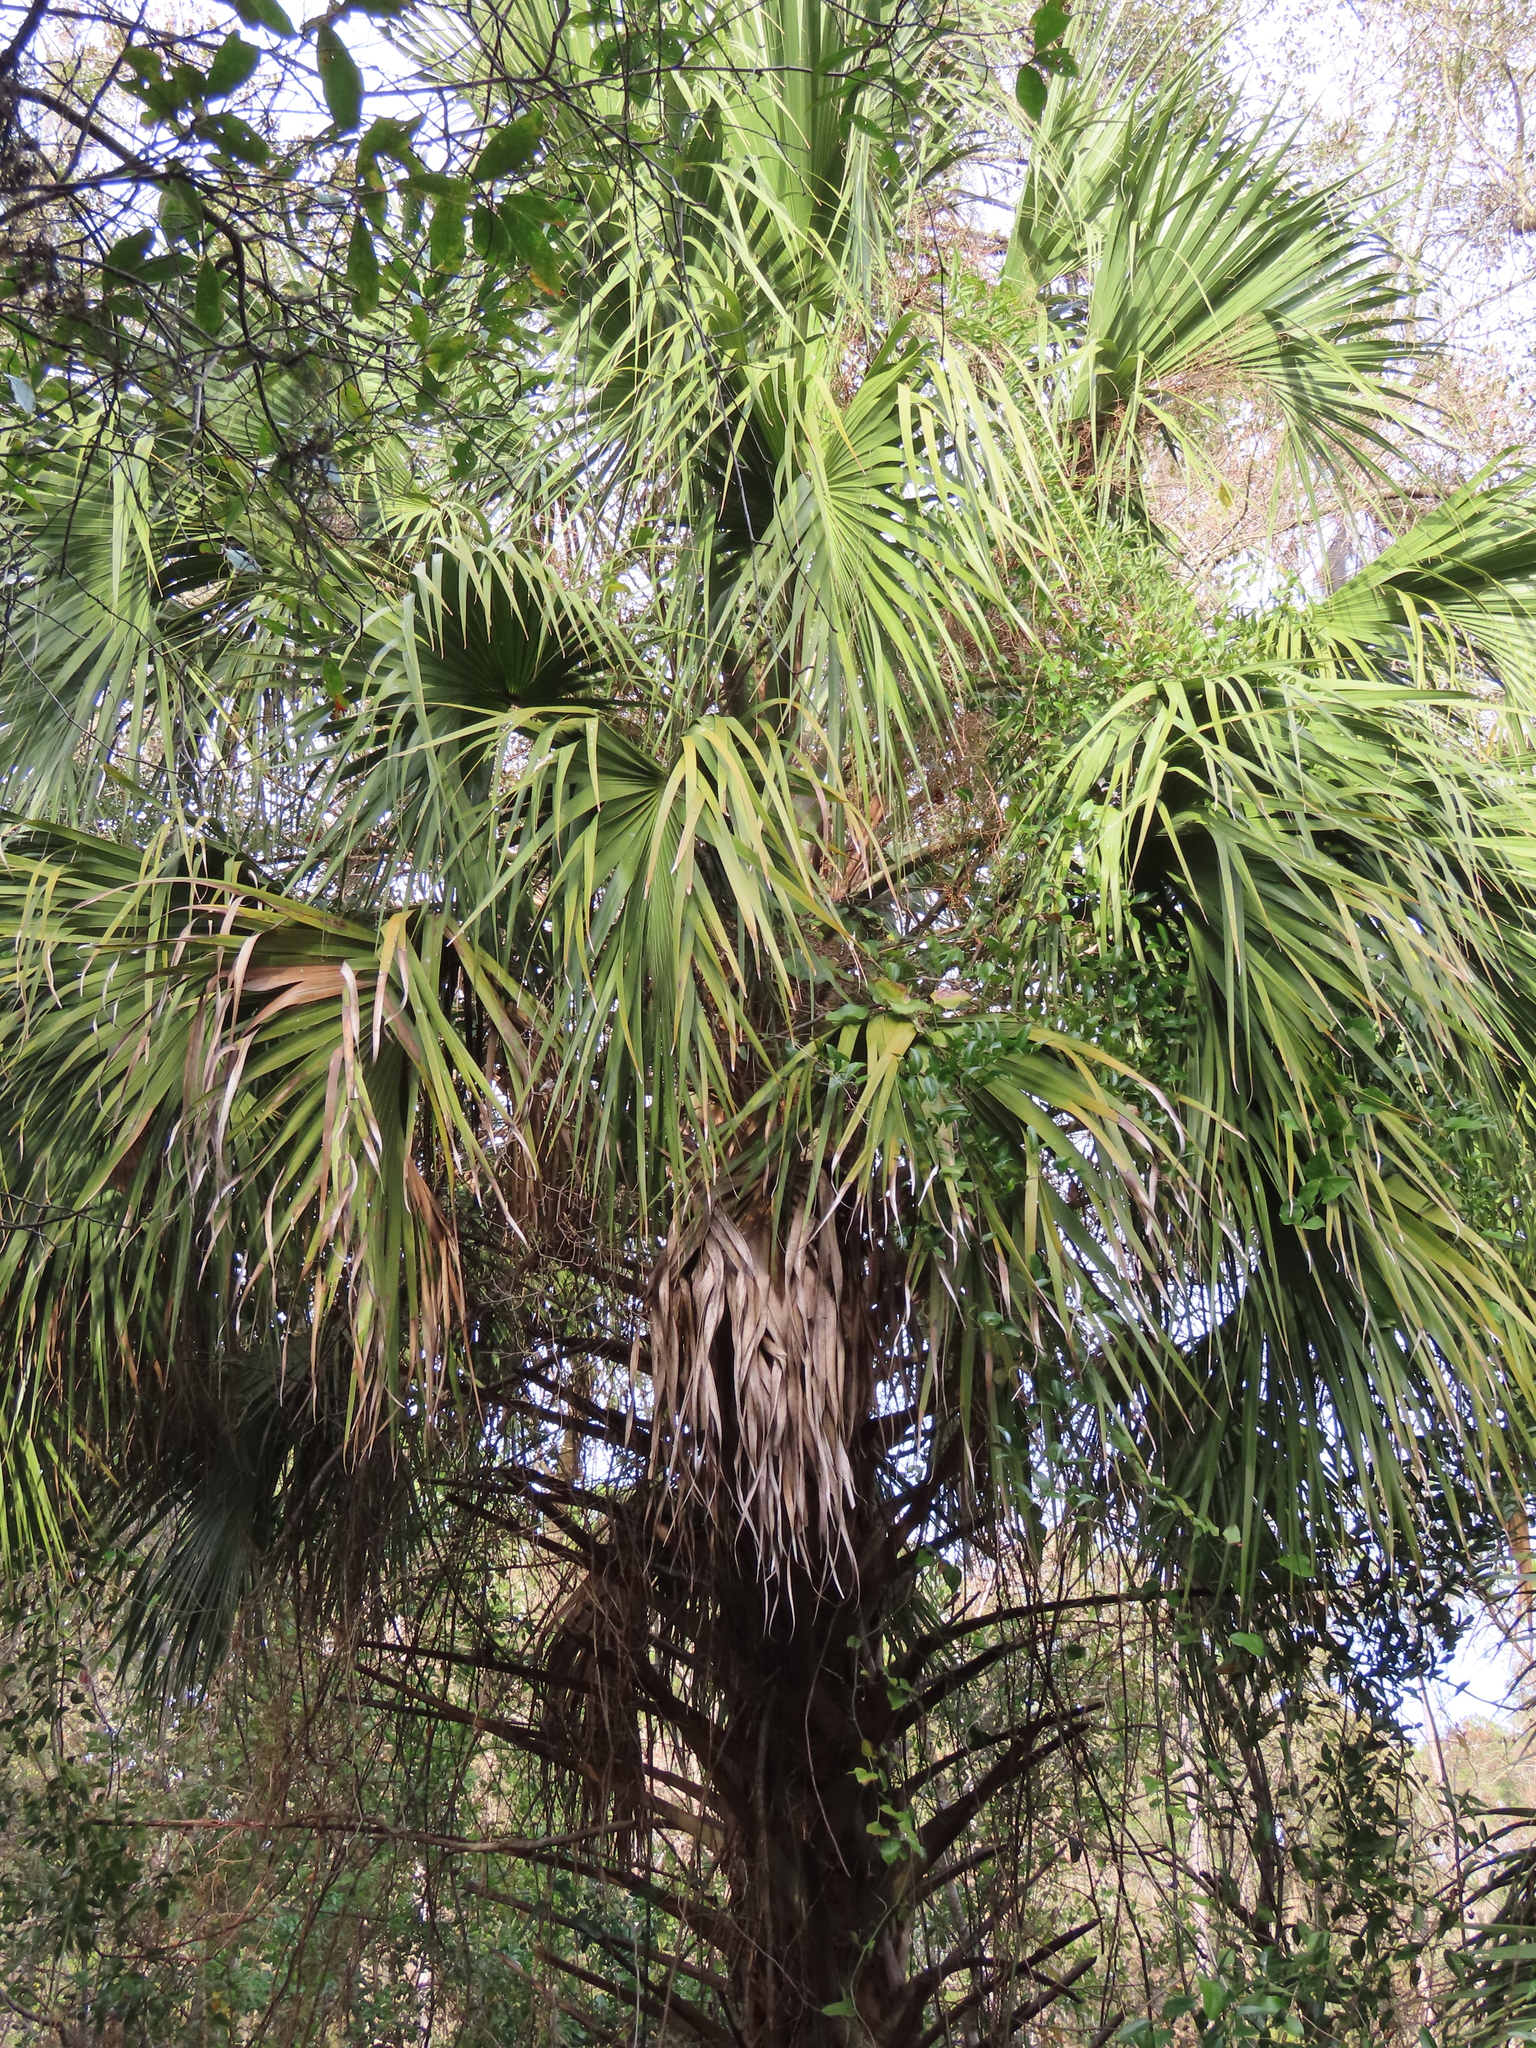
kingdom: Plantae
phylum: Tracheophyta
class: Liliopsida
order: Arecales
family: Arecaceae
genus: Sabal
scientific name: Sabal palmetto
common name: Blue palmetto
